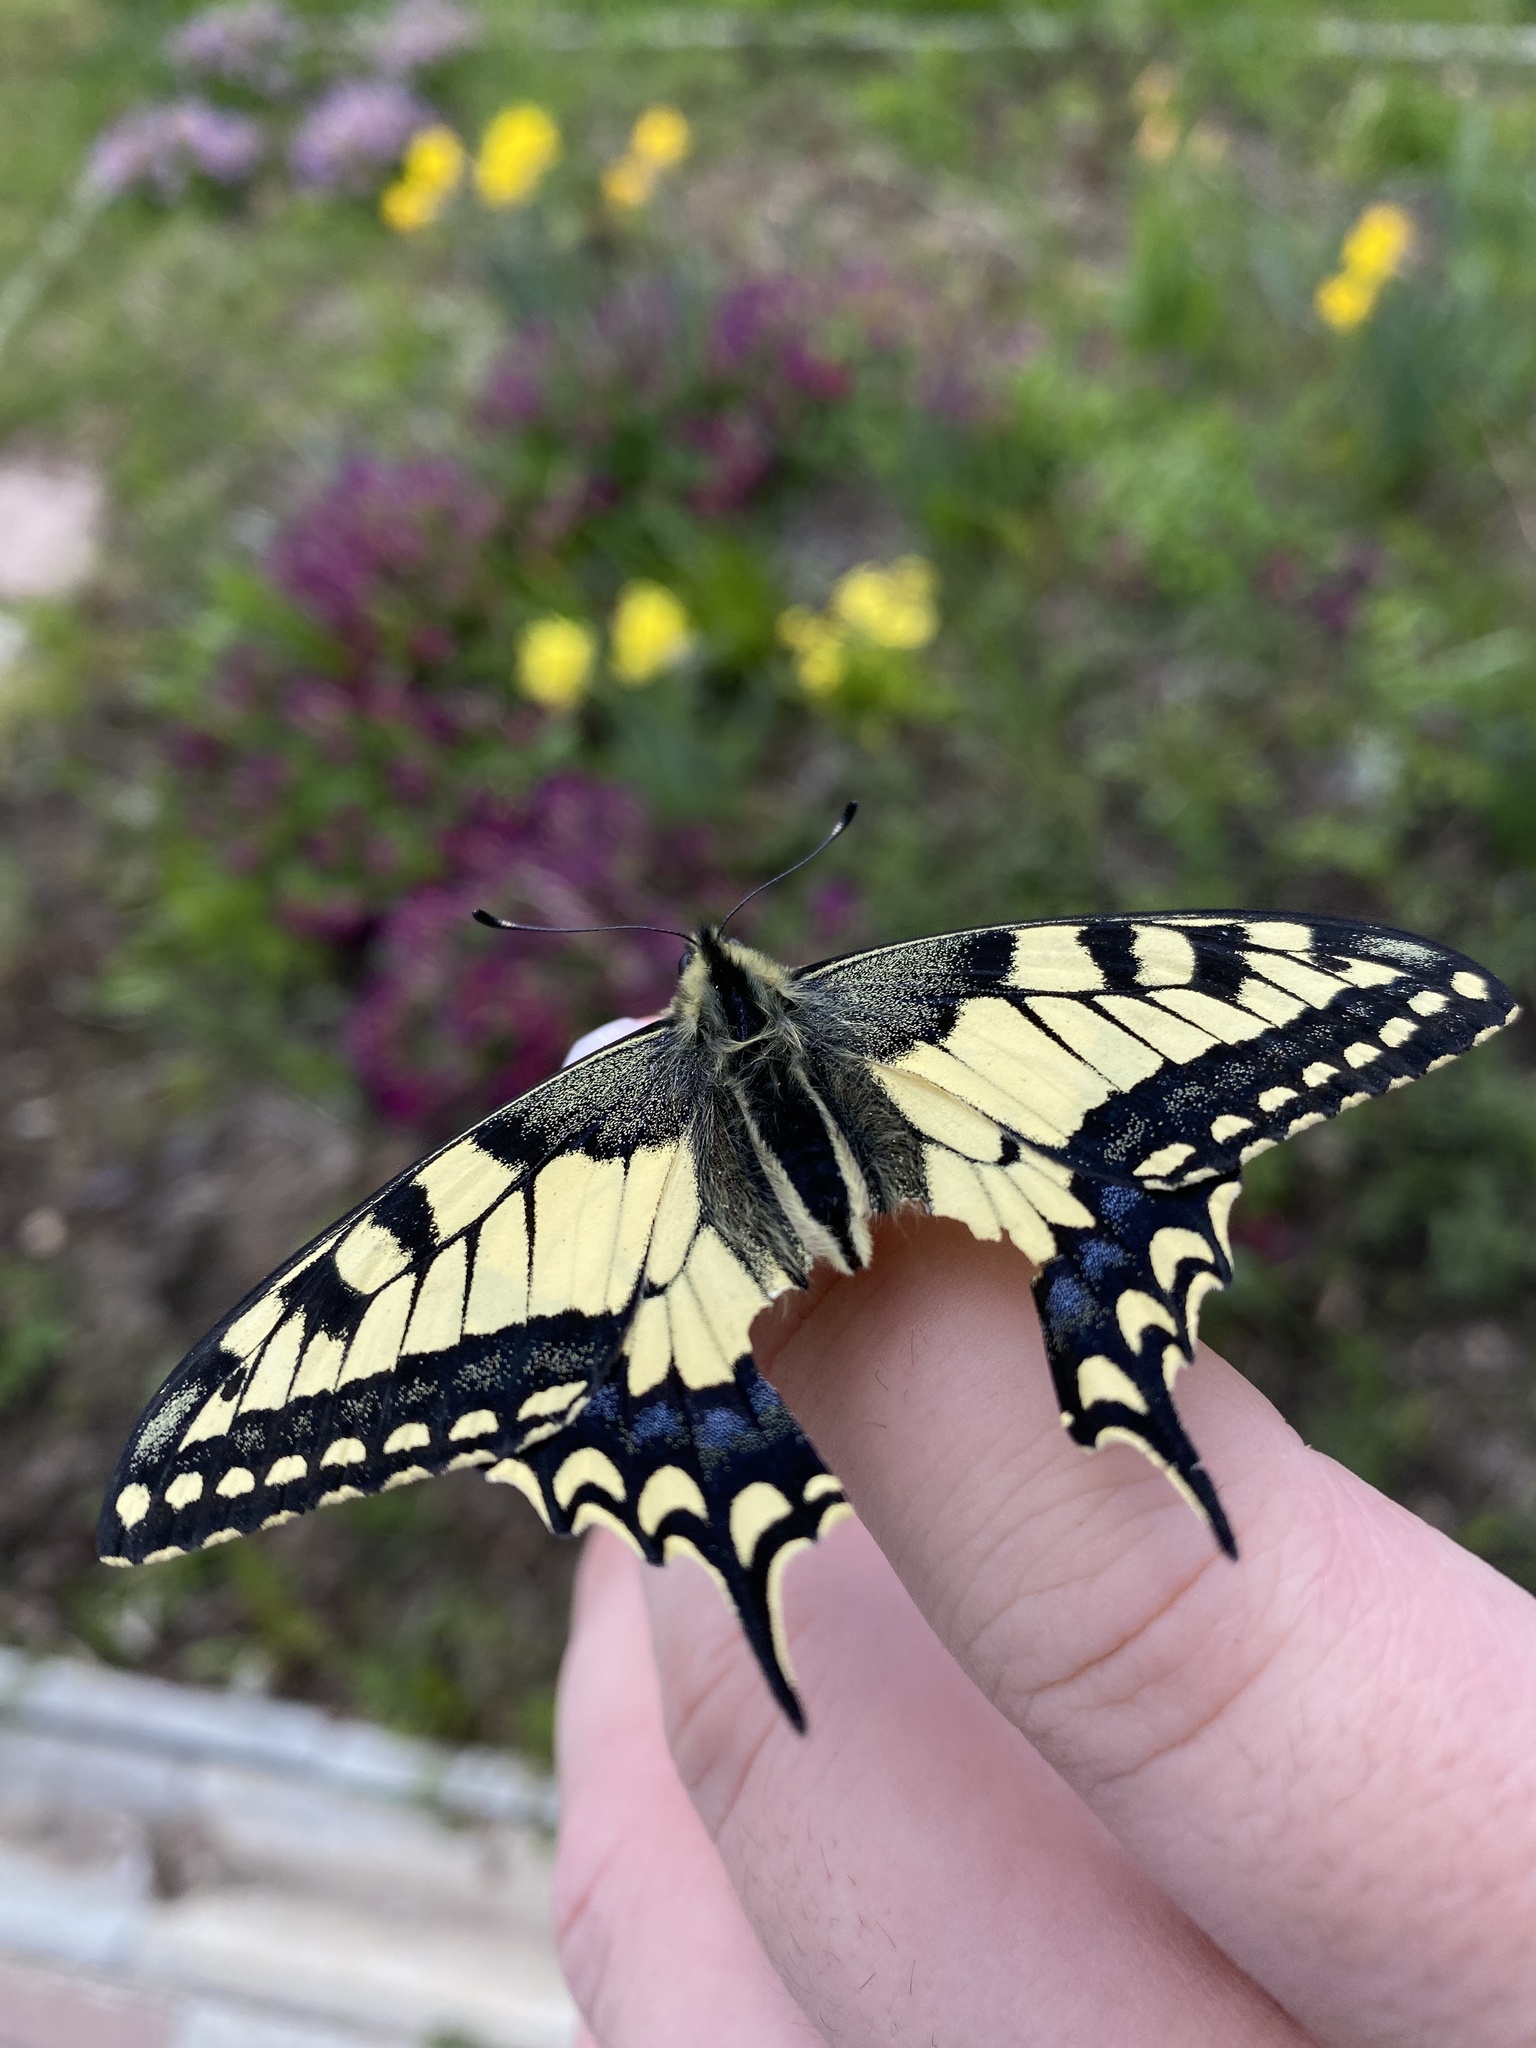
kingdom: Animalia
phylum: Arthropoda
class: Insecta
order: Lepidoptera
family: Papilionidae
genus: Papilio
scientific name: Papilio machaon
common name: Swallowtail
